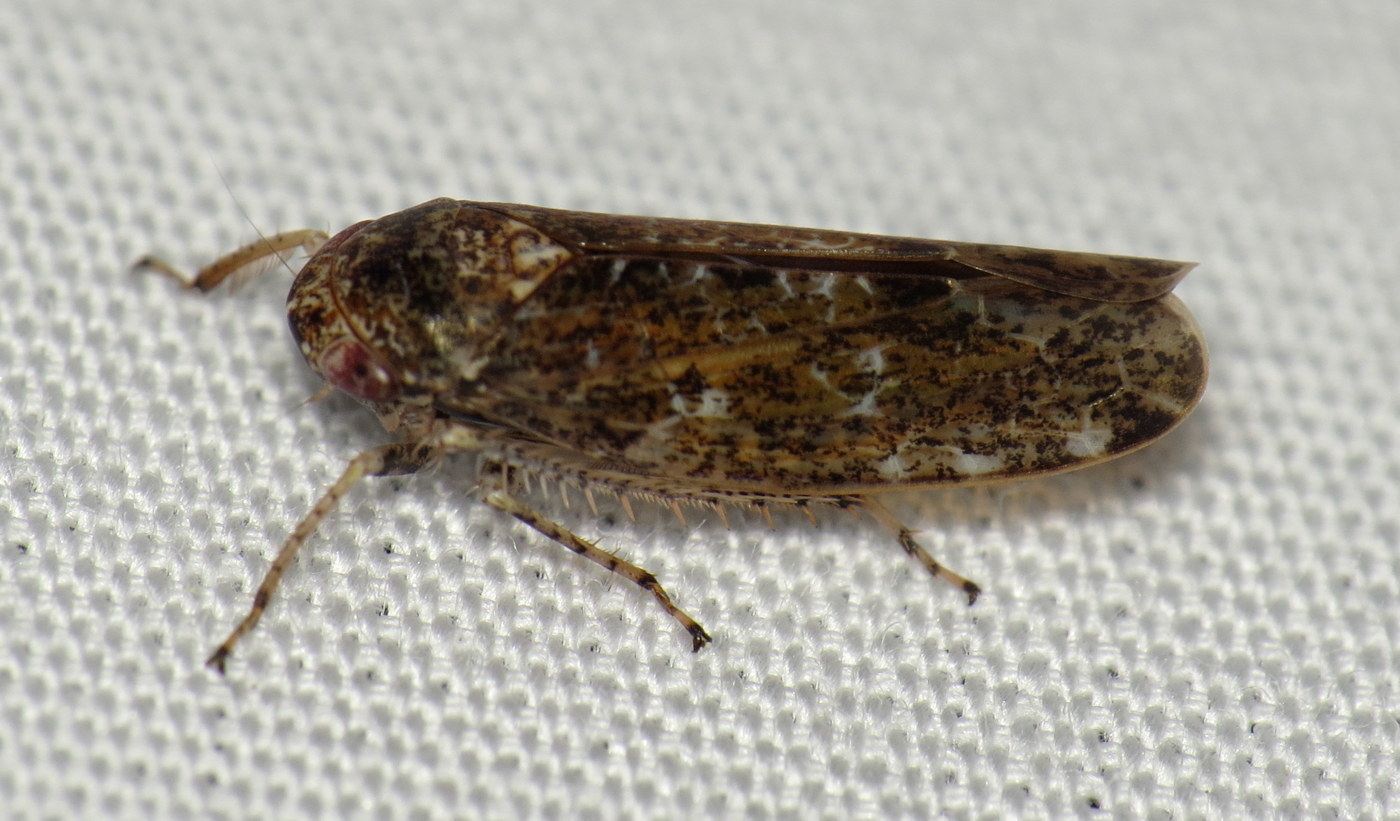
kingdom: Animalia
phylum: Arthropoda
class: Insecta
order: Hemiptera
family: Cicadellidae
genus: Allygidius
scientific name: Allygidius atomarius
